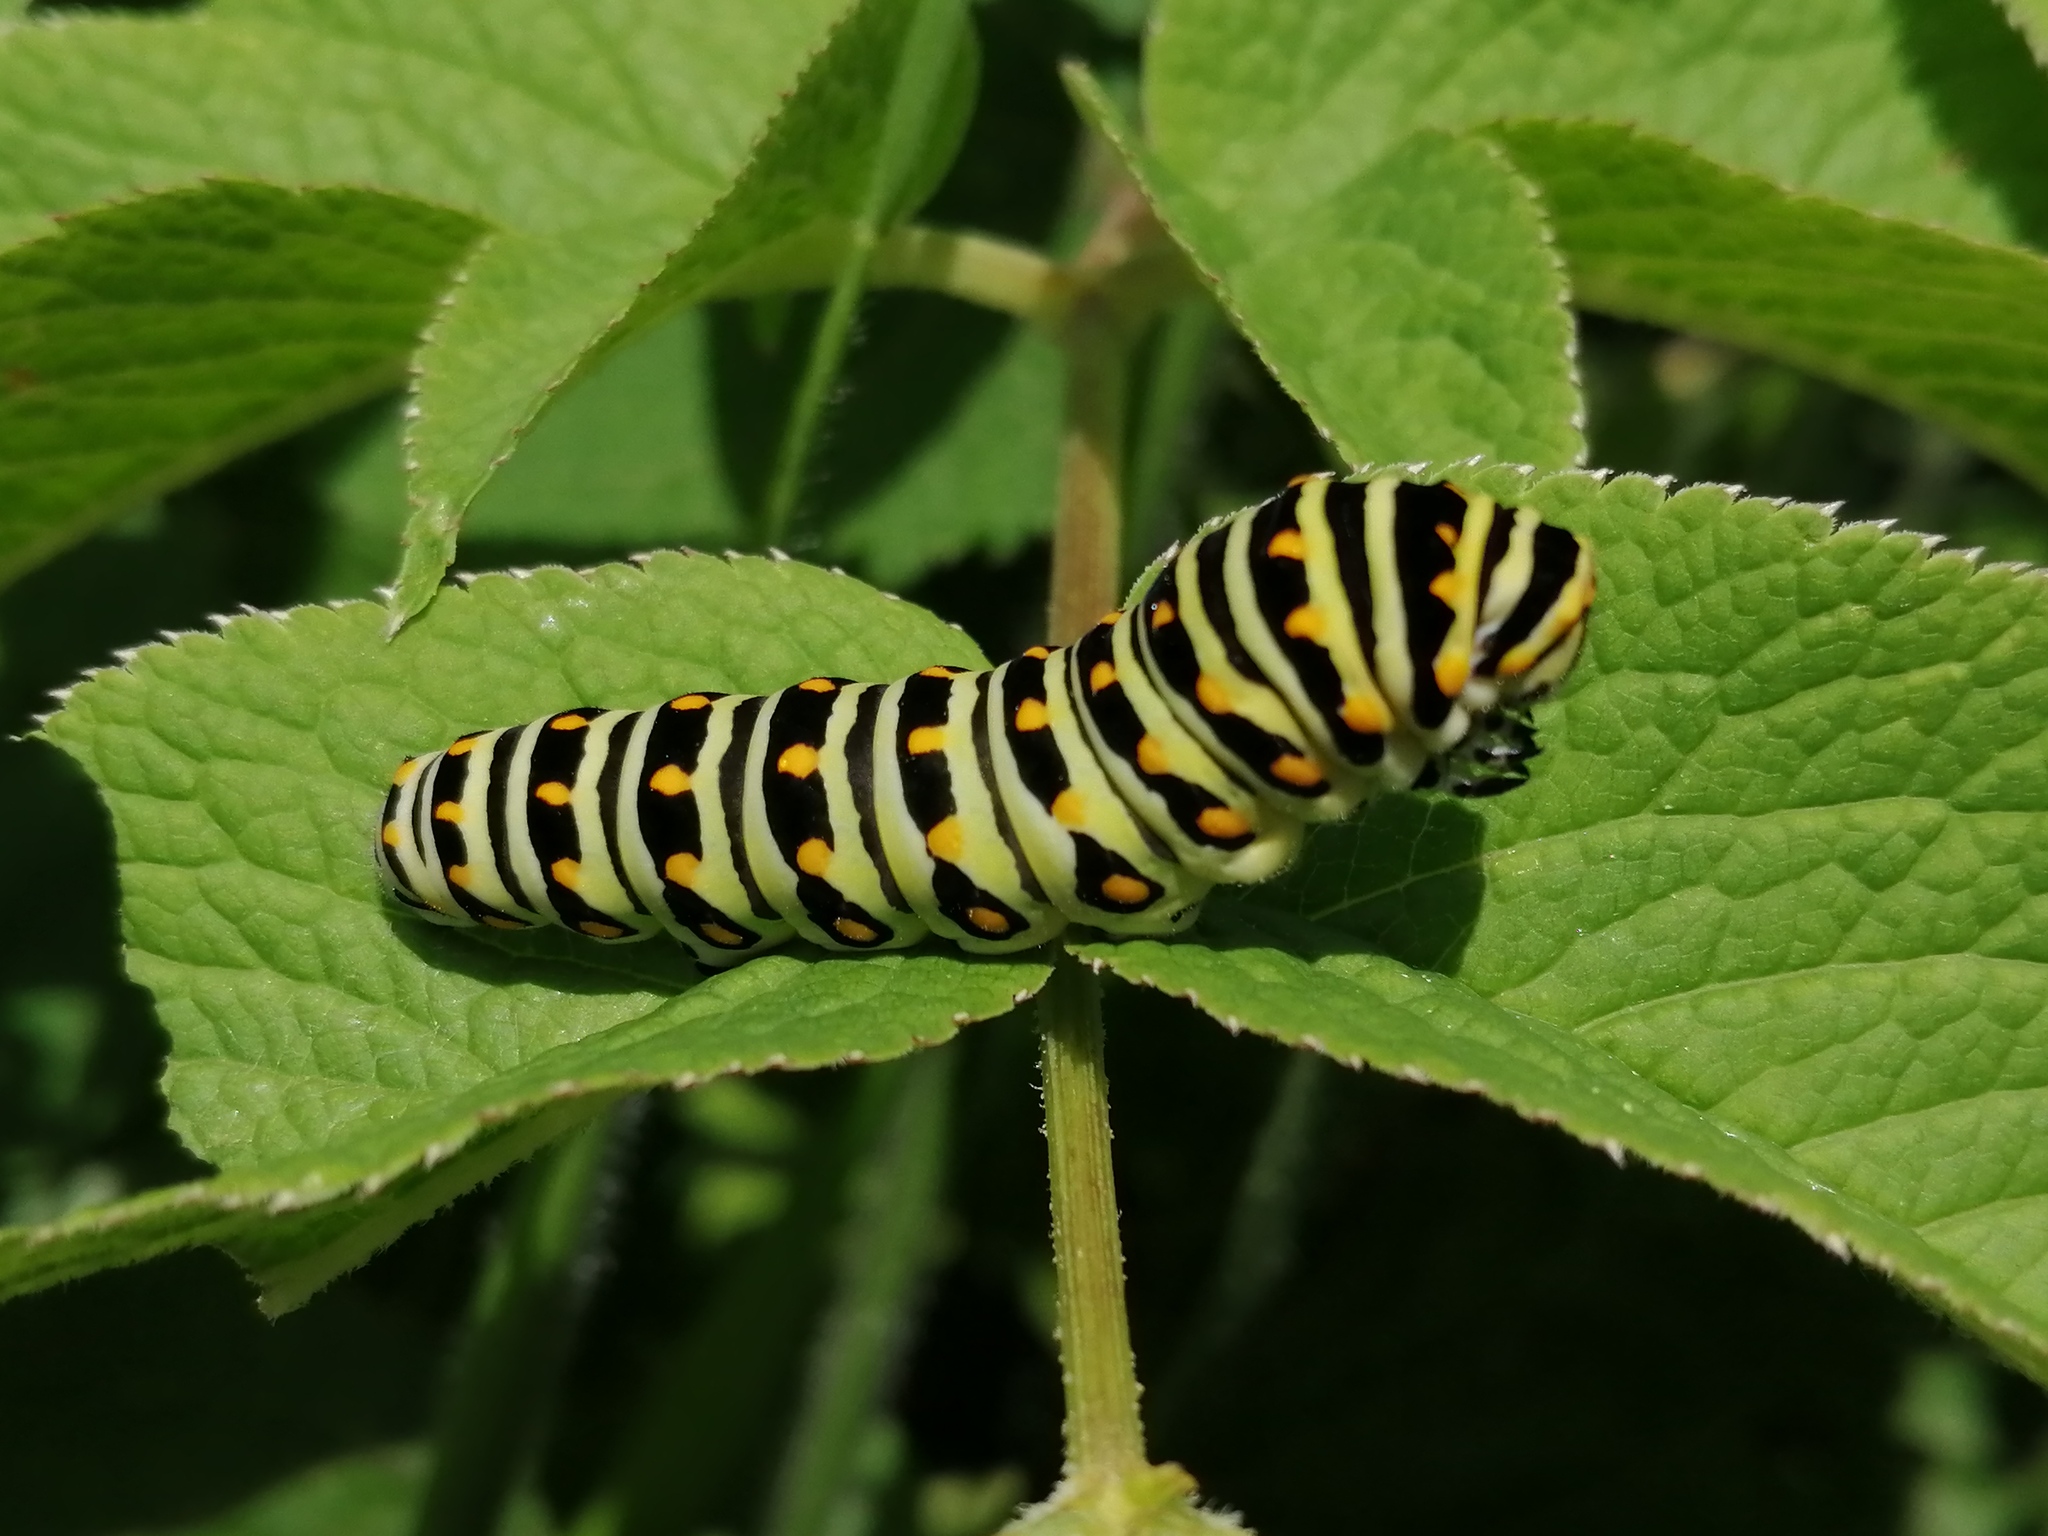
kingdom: Animalia
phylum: Arthropoda
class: Insecta
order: Lepidoptera
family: Papilionidae
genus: Papilio
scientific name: Papilio polyxenes
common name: Black swallowtail
